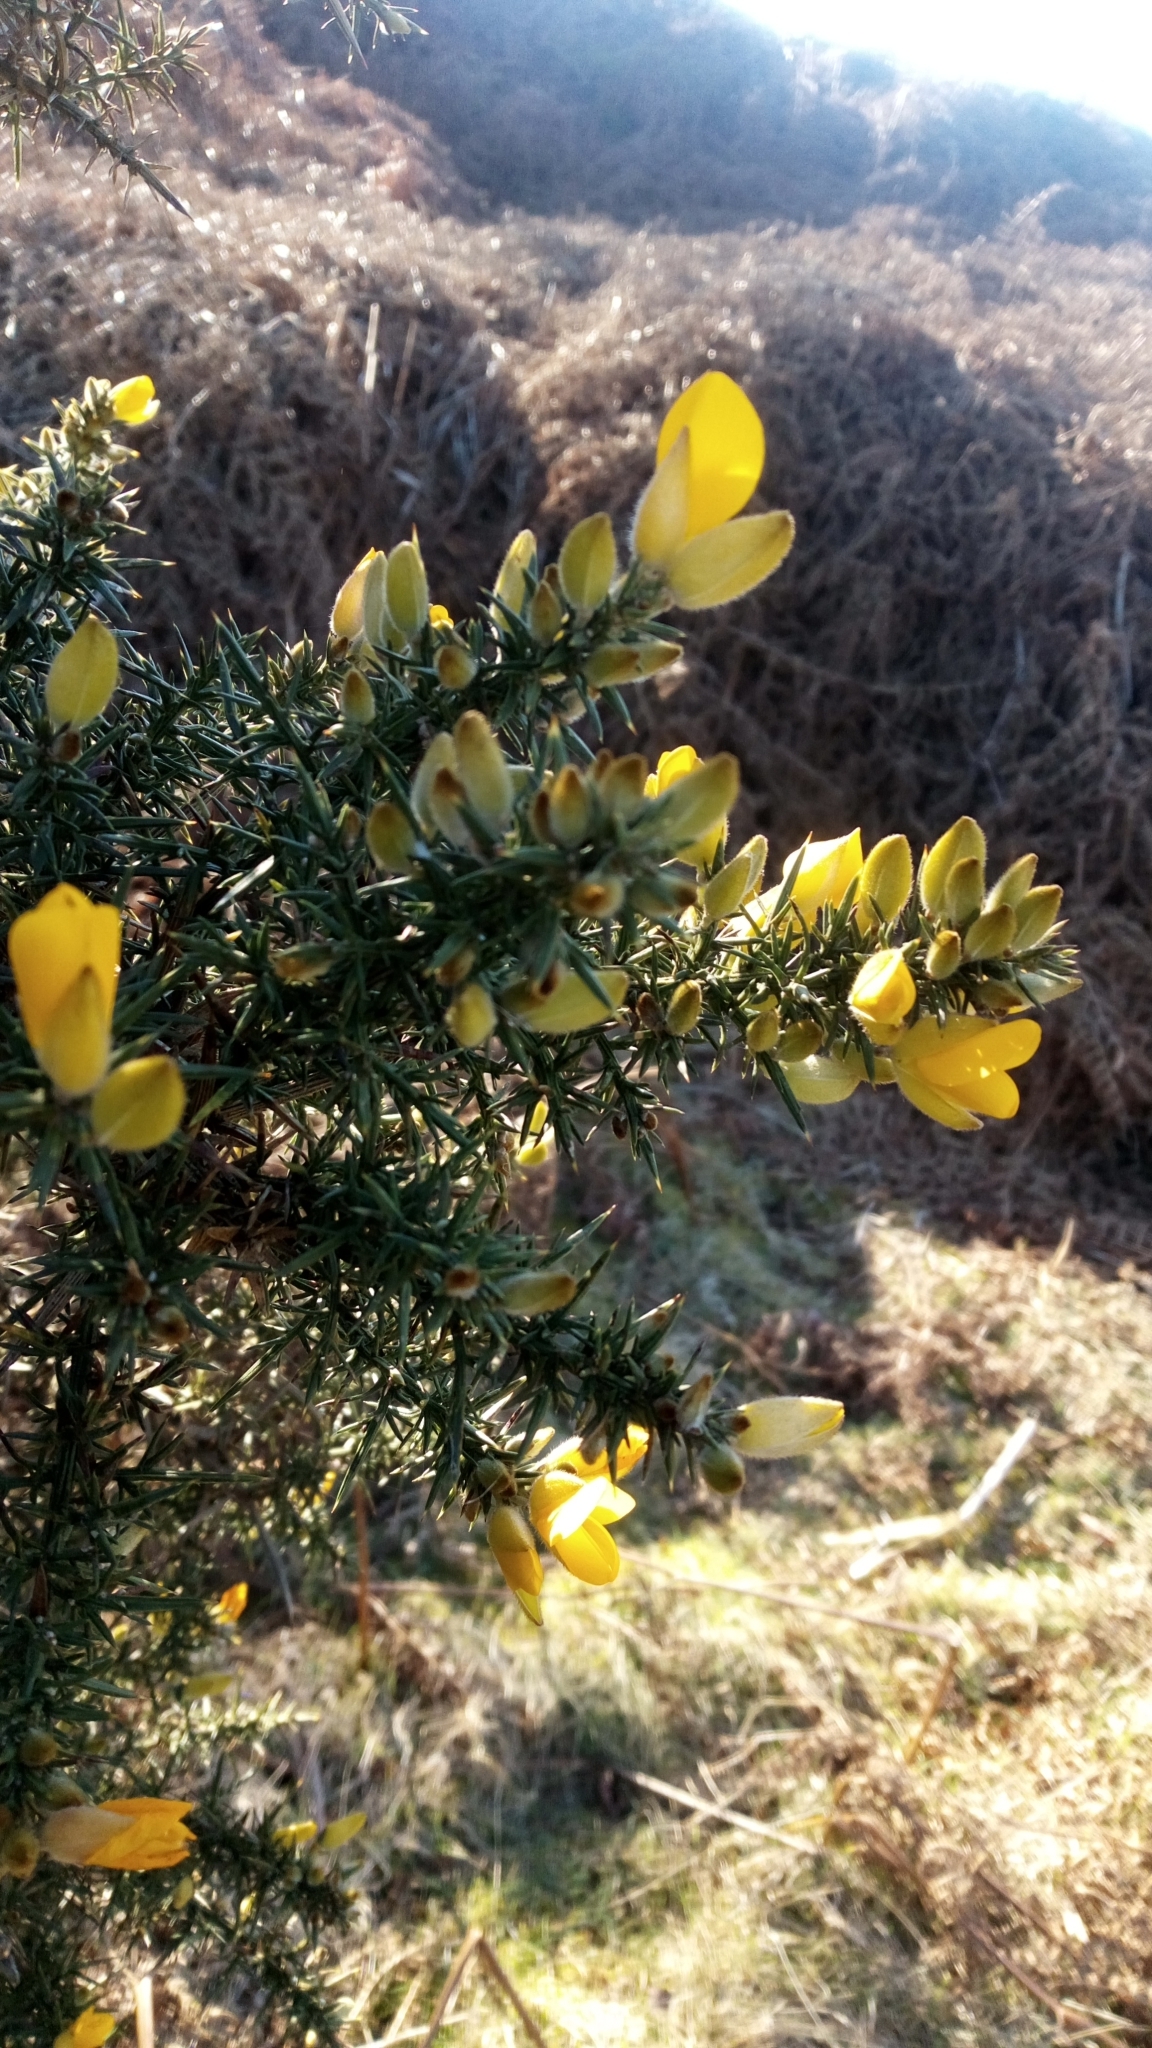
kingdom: Plantae
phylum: Tracheophyta
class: Magnoliopsida
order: Fabales
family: Fabaceae
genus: Ulex
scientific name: Ulex europaeus
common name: Common gorse
